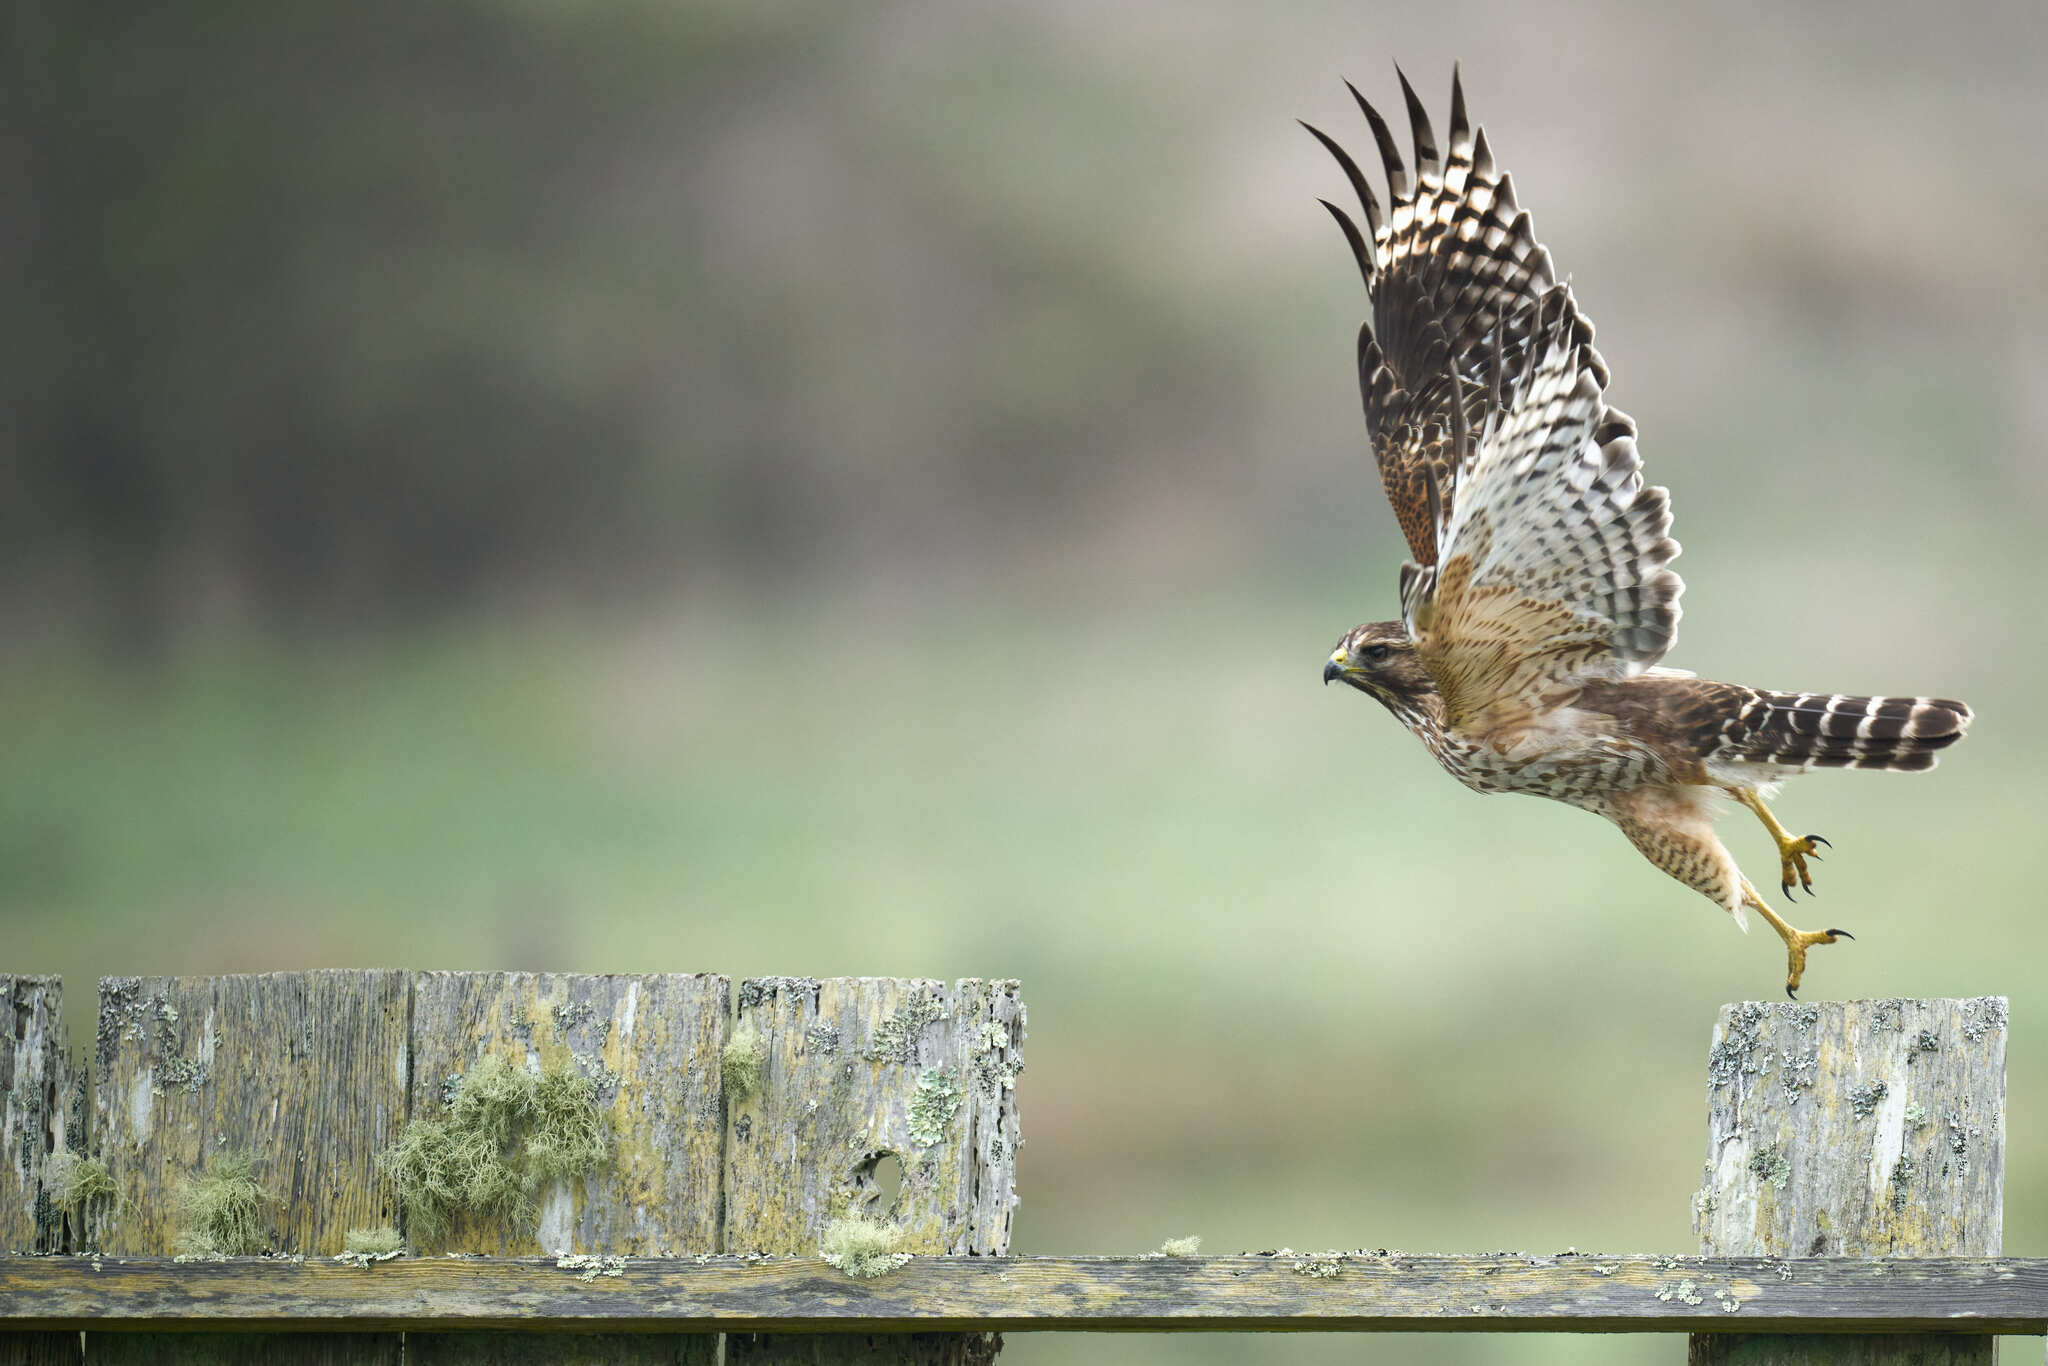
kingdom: Animalia
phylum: Chordata
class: Aves
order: Accipitriformes
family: Accipitridae
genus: Buteo
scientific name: Buteo lineatus
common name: Red-shouldered hawk
